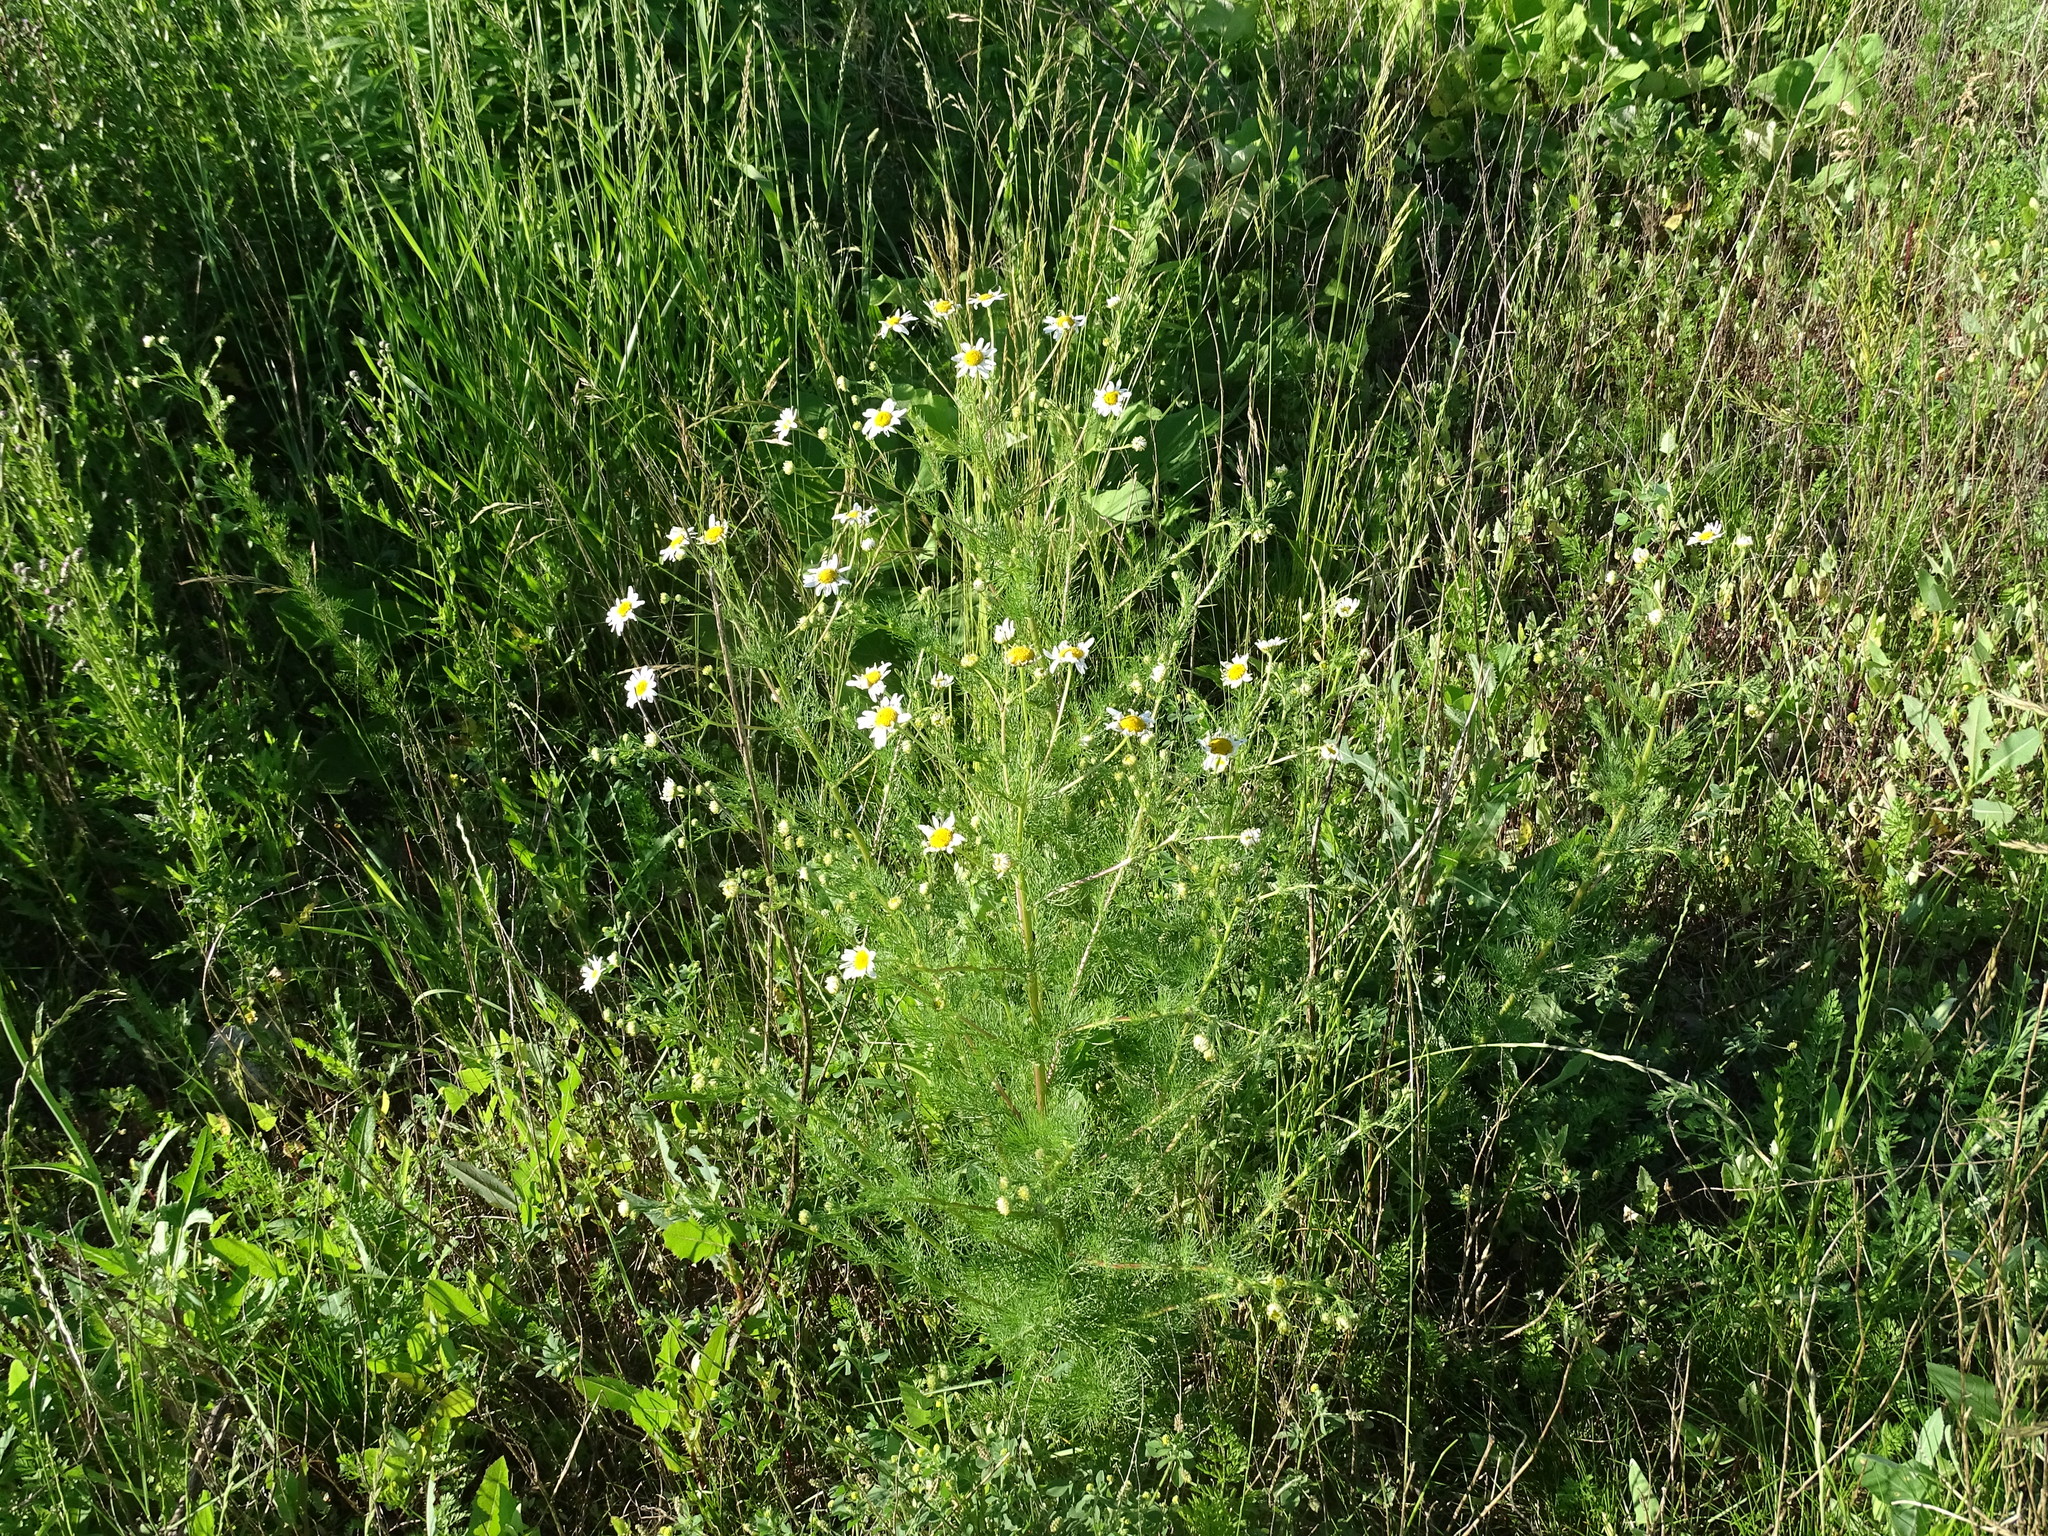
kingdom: Plantae
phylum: Tracheophyta
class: Magnoliopsida
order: Asterales
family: Asteraceae
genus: Tripleurospermum
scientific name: Tripleurospermum inodorum
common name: Scentless mayweed
